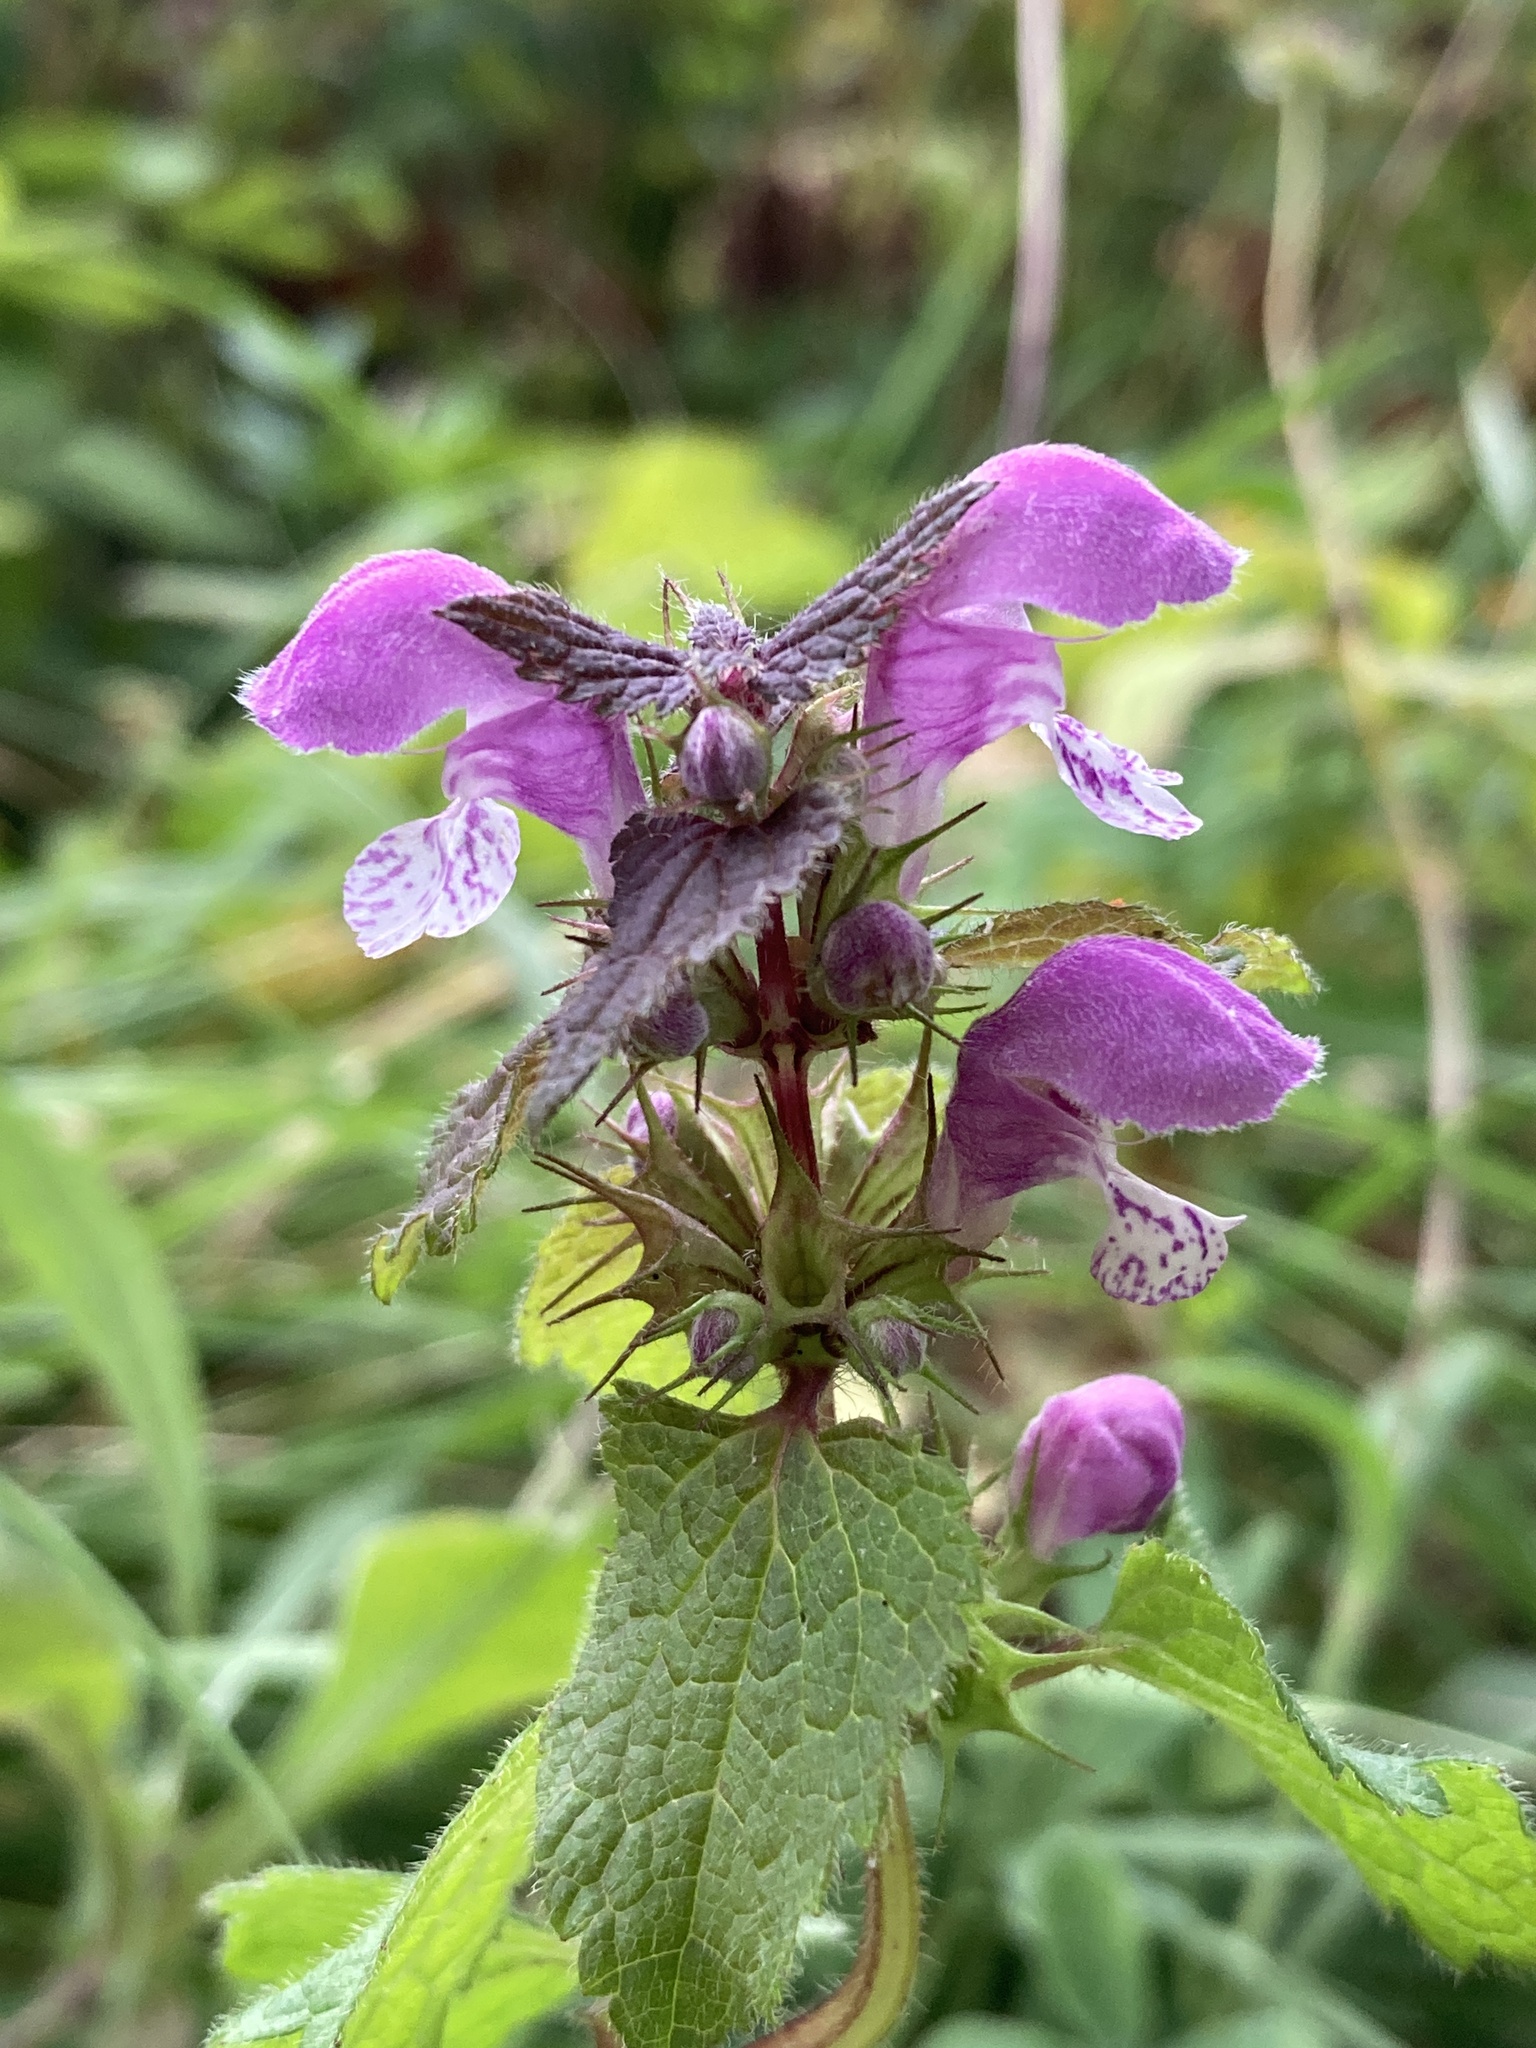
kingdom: Plantae
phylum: Tracheophyta
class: Magnoliopsida
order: Lamiales
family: Lamiaceae
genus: Lamium
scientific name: Lamium maculatum
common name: Spotted dead-nettle
